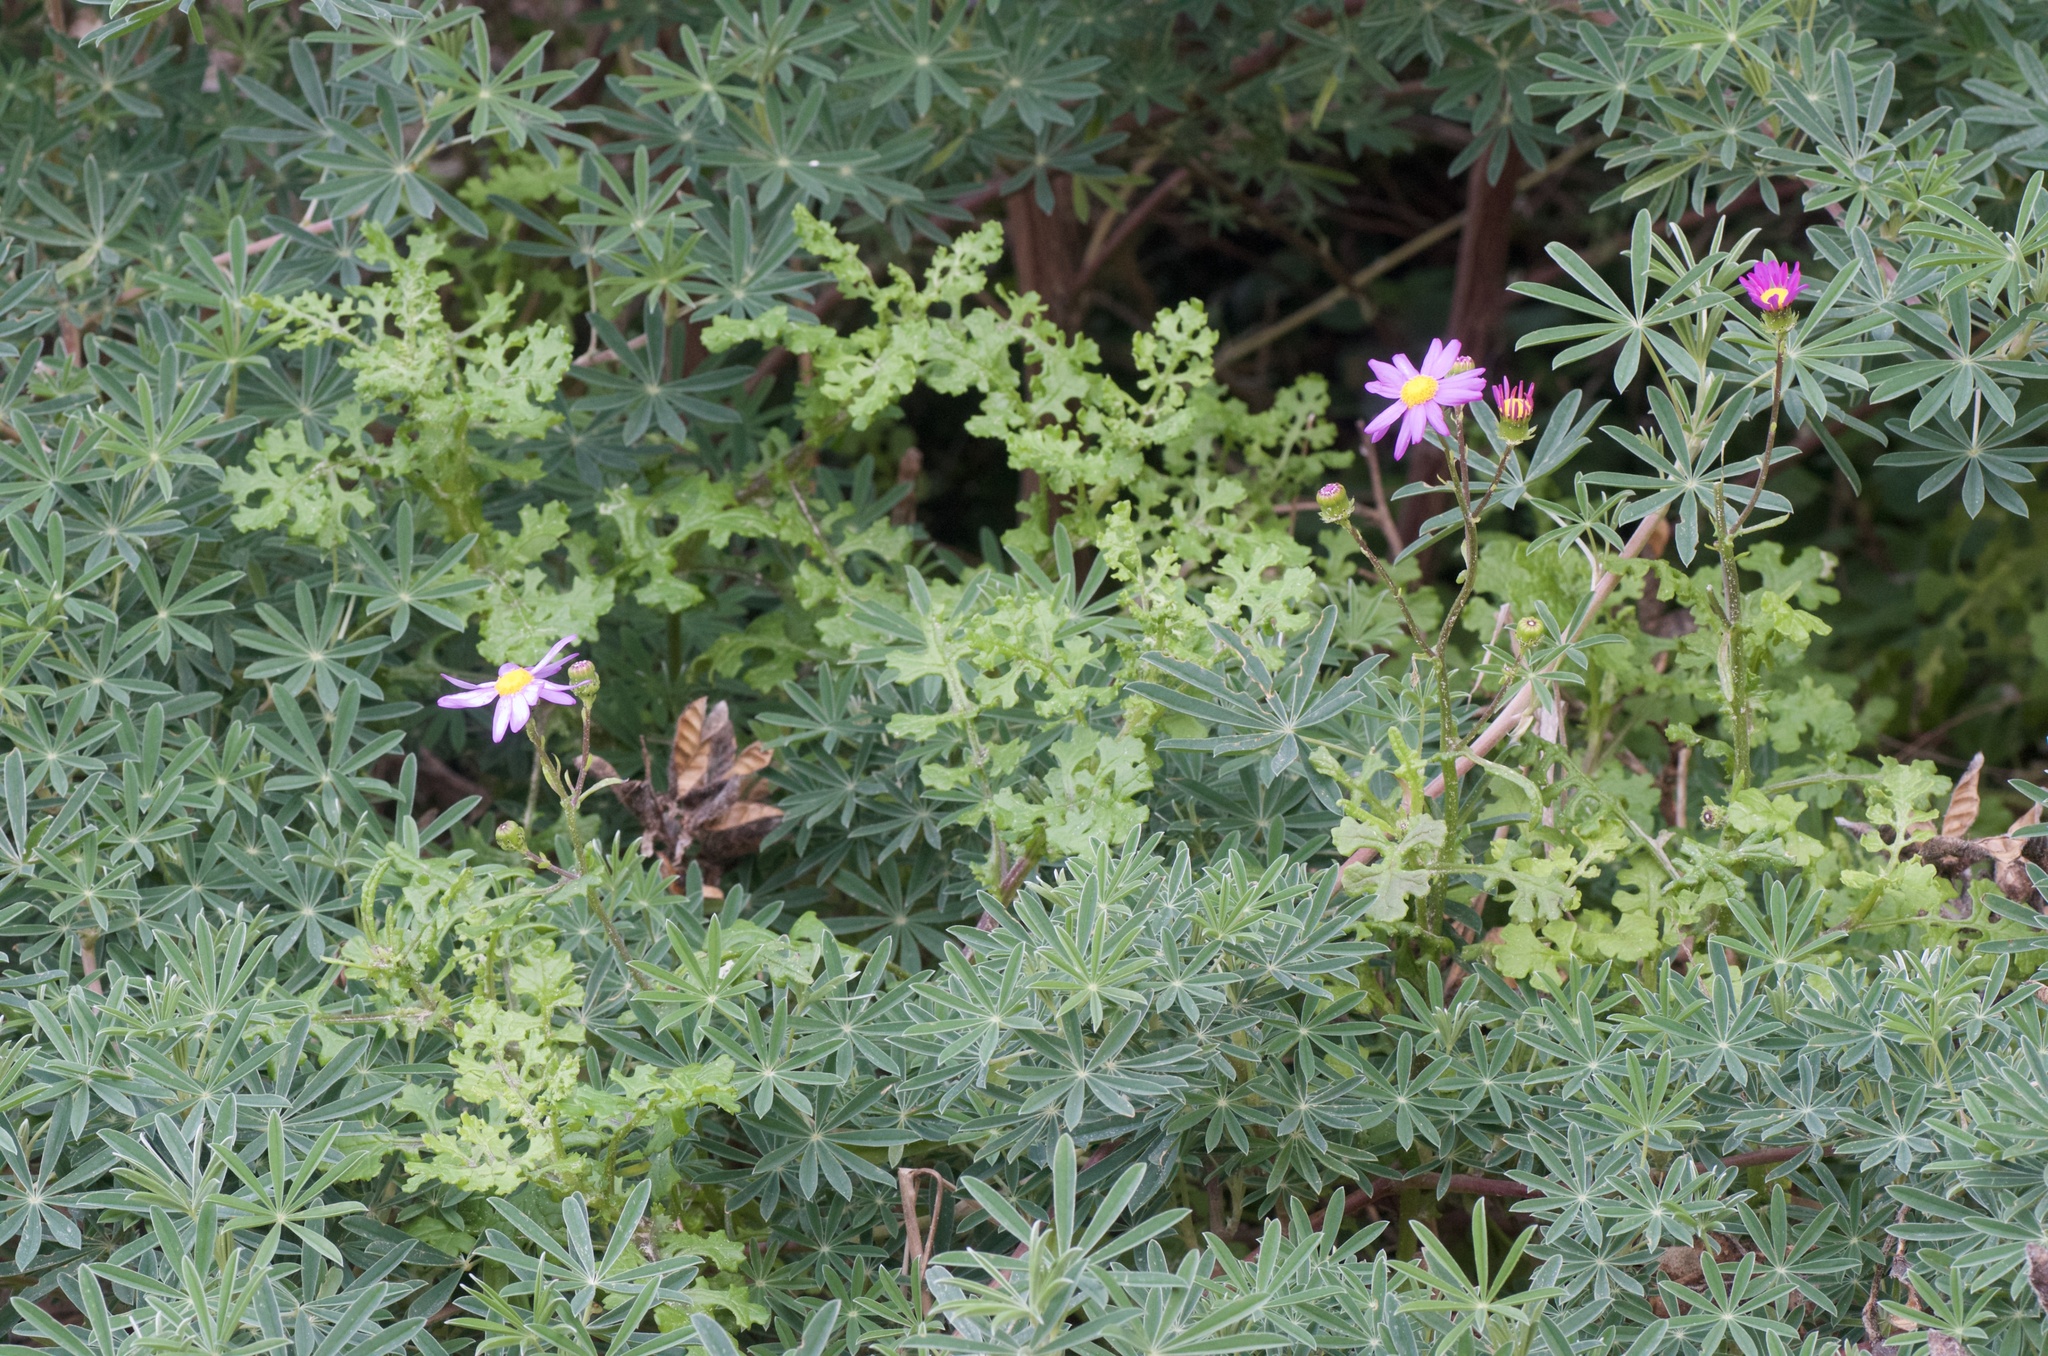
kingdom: Plantae
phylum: Tracheophyta
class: Magnoliopsida
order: Fabales
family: Fabaceae
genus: Lupinus
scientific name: Lupinus arboreus
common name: Yellow bush lupine
